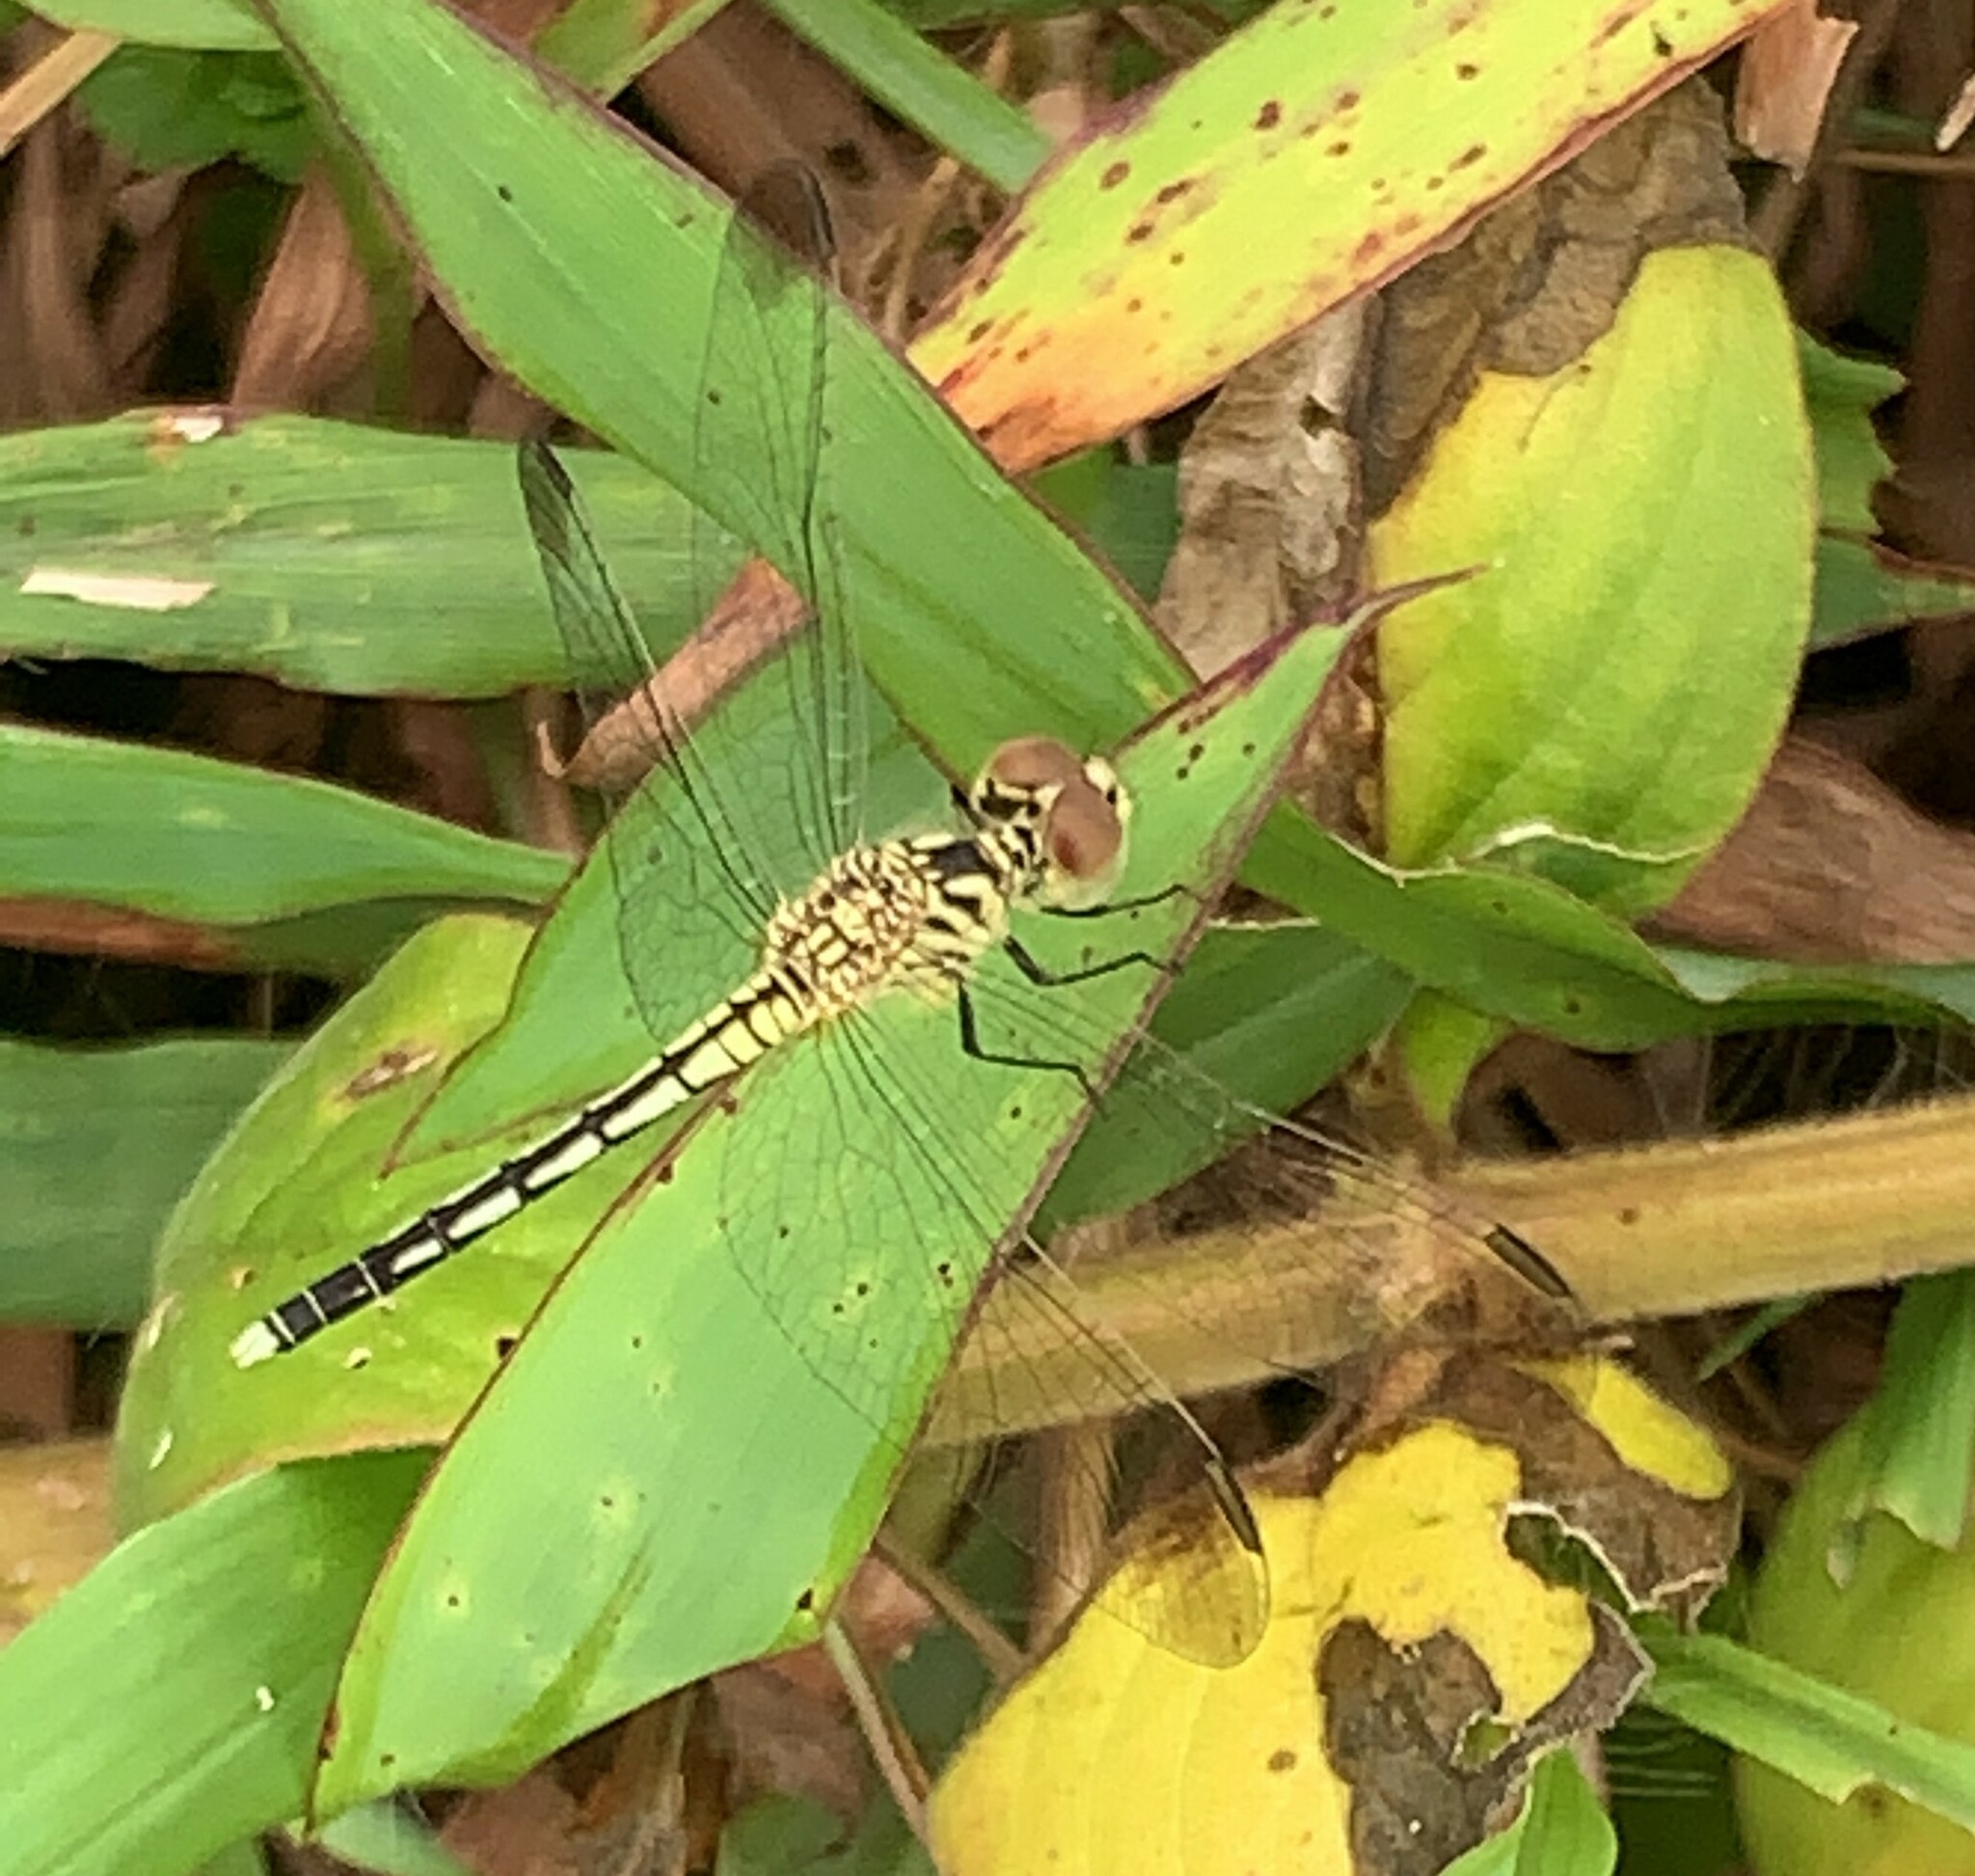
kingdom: Animalia
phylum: Arthropoda
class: Insecta
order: Odonata
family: Libellulidae
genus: Diplacodes
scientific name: Diplacodes nebulosa
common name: Black-tipped percher
